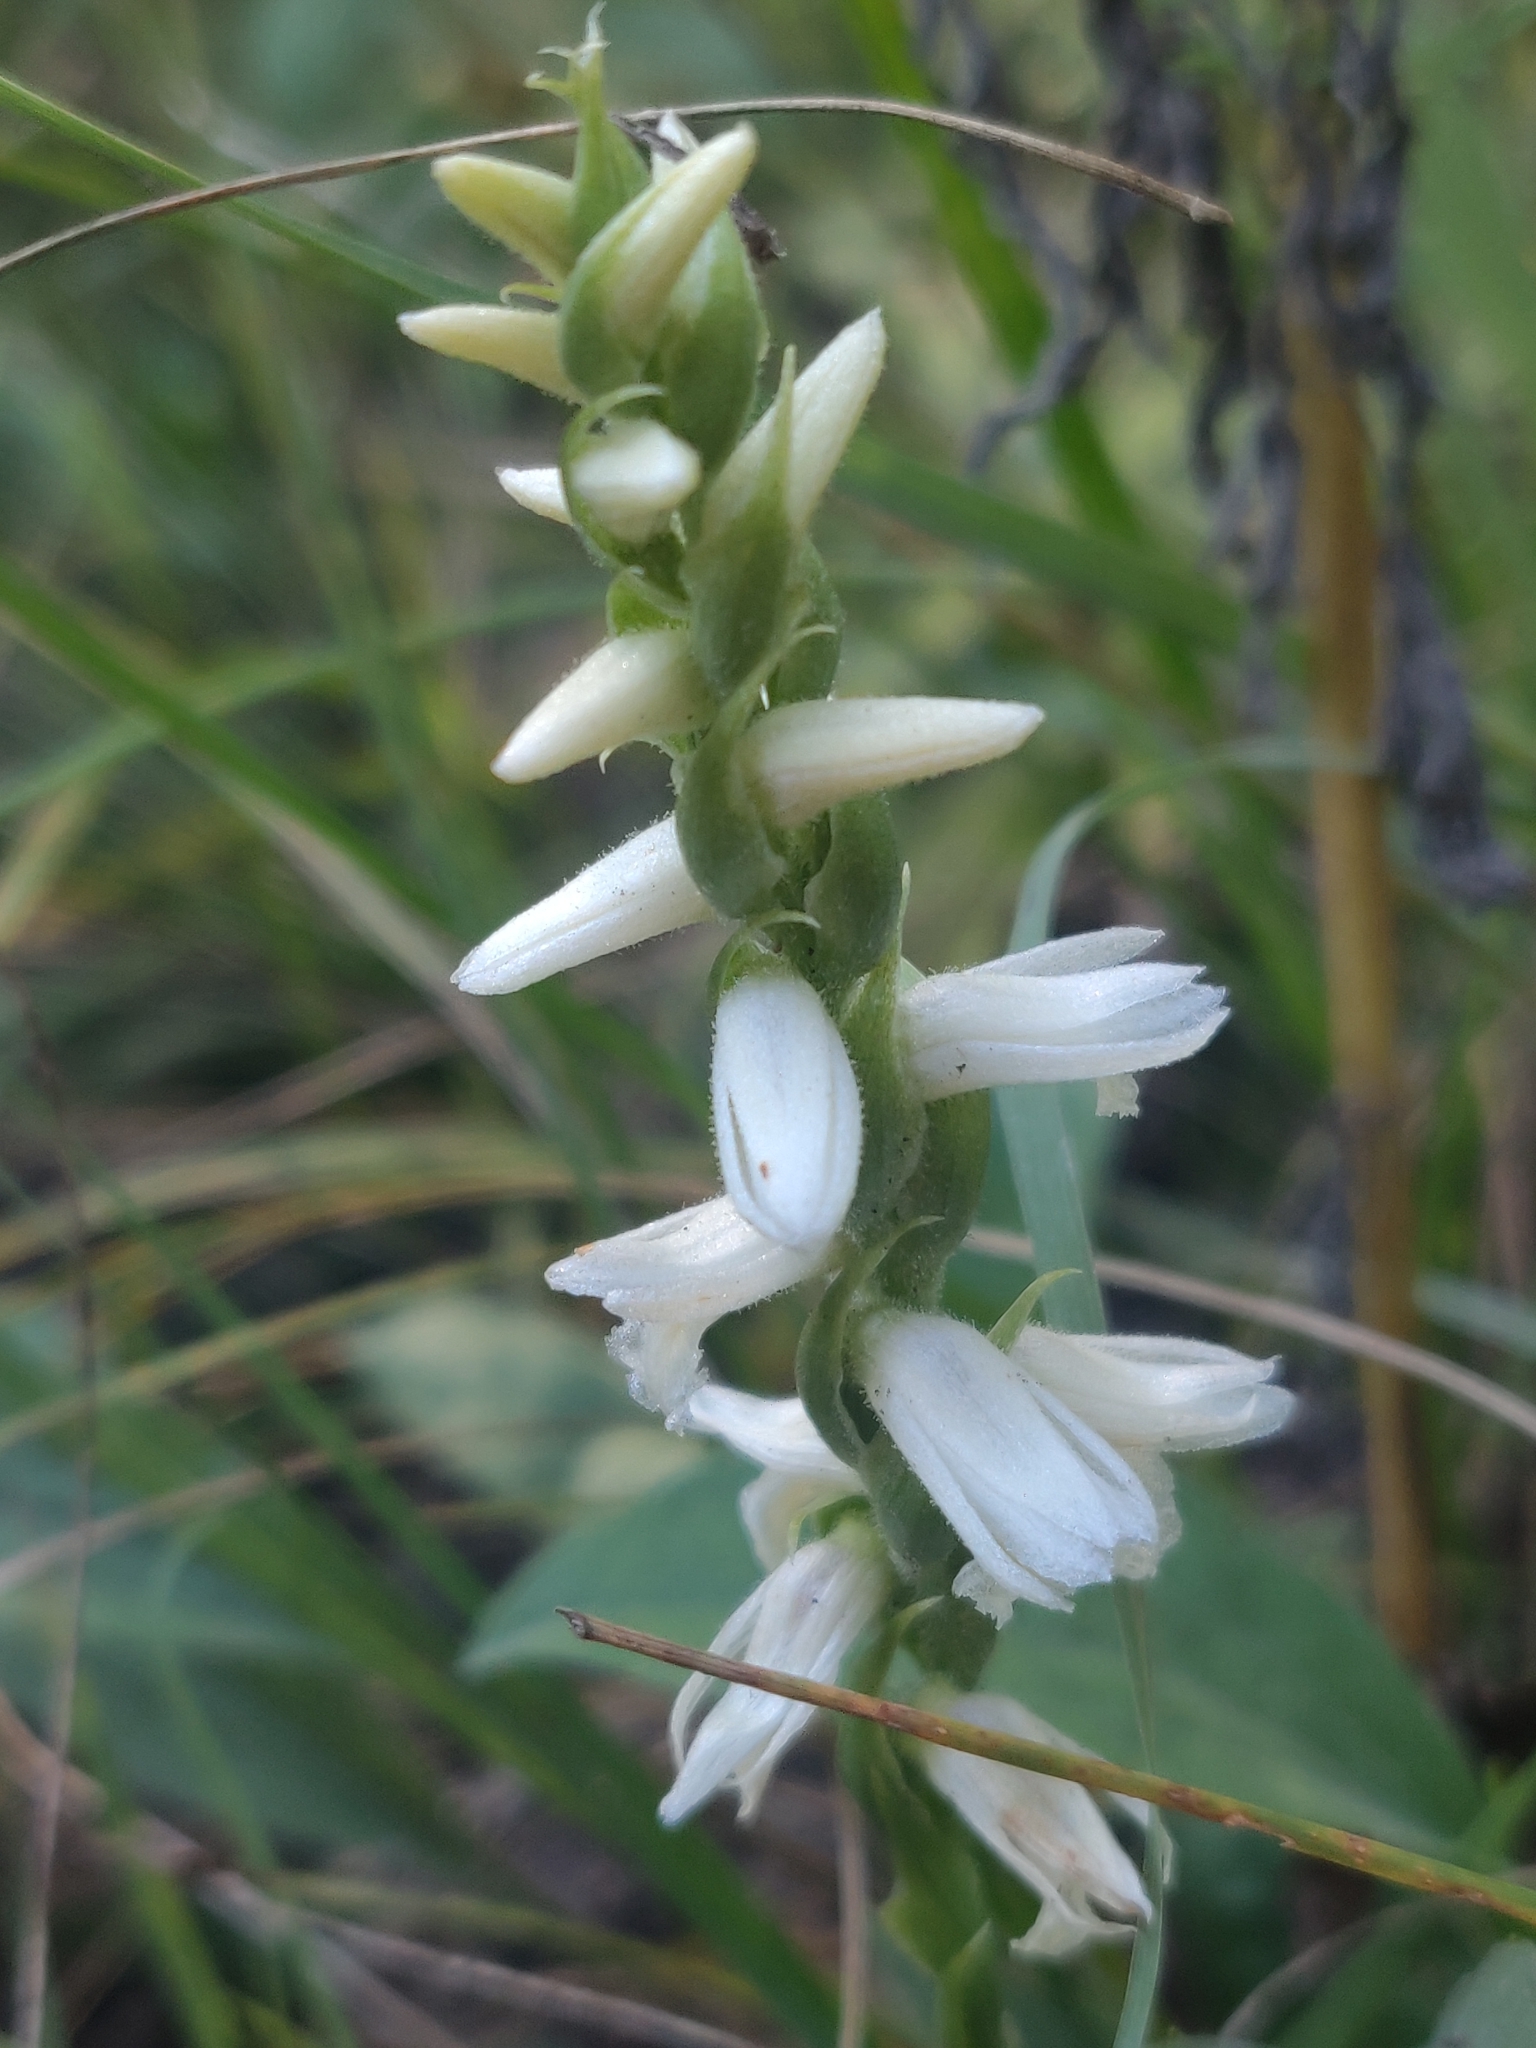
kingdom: Plantae
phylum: Tracheophyta
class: Liliopsida
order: Asparagales
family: Orchidaceae
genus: Spiranthes
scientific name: Spiranthes magnicamporum
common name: Great plains ladies'-tresses
